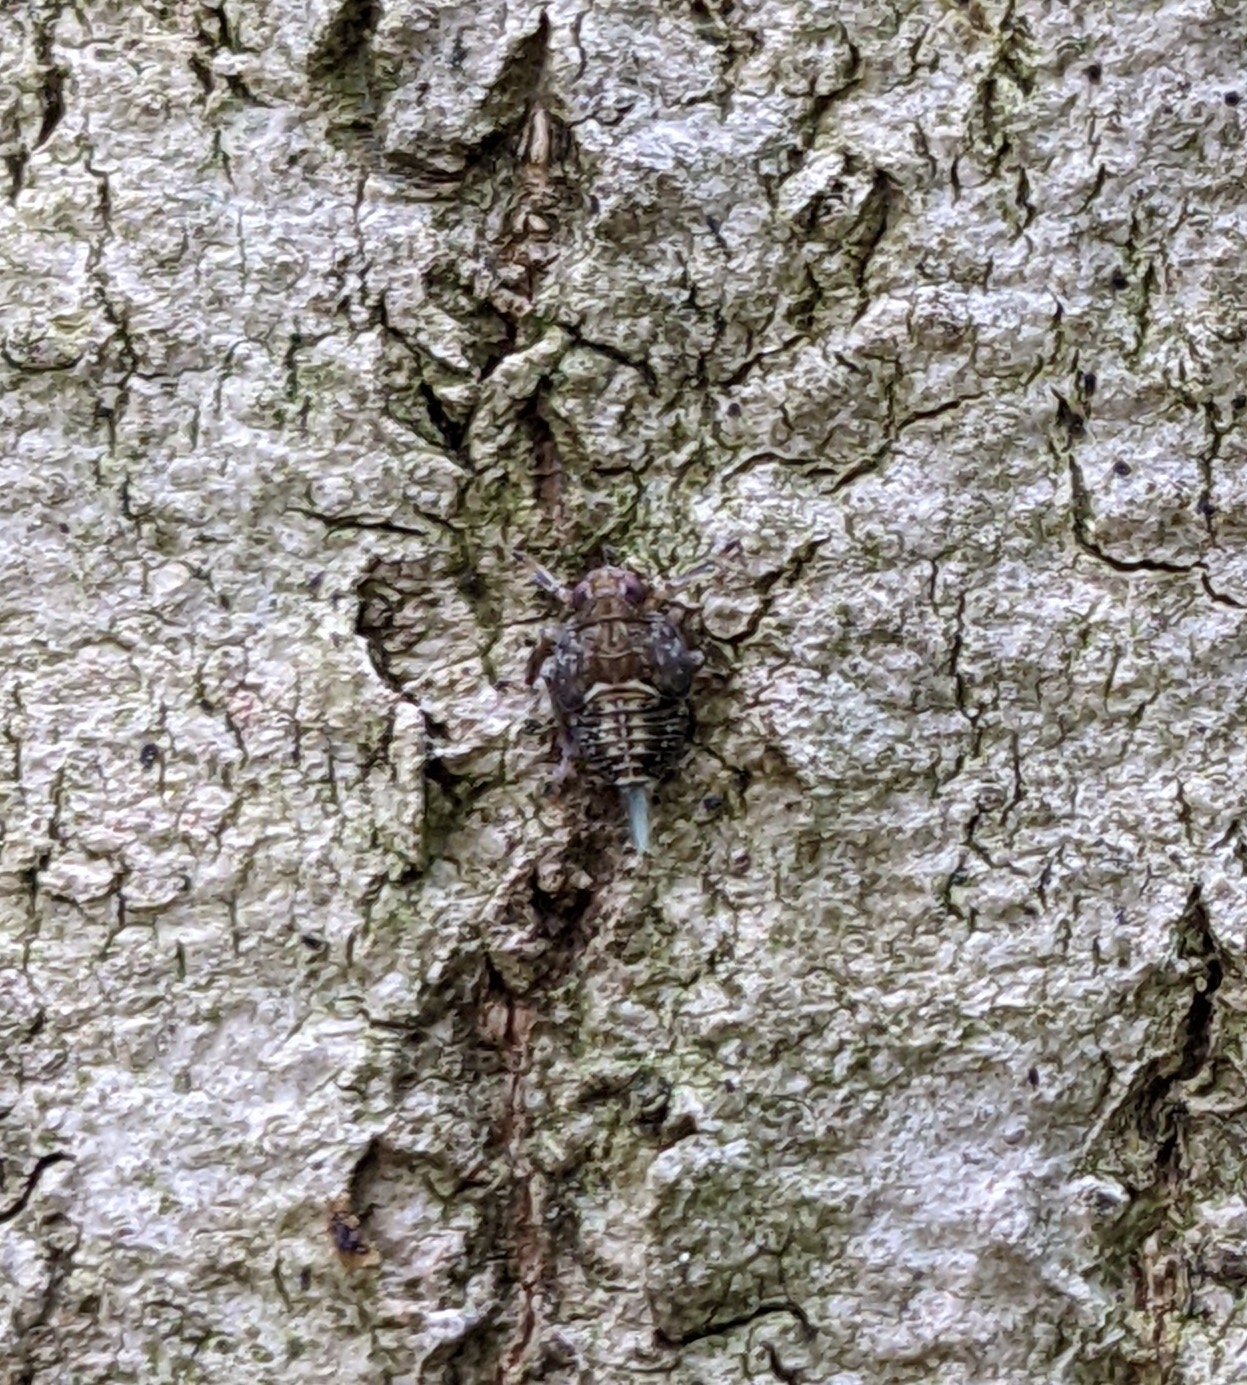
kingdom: Animalia
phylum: Arthropoda
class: Insecta
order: Hemiptera
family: Issidae
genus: Issus
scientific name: Issus coleoptratus
